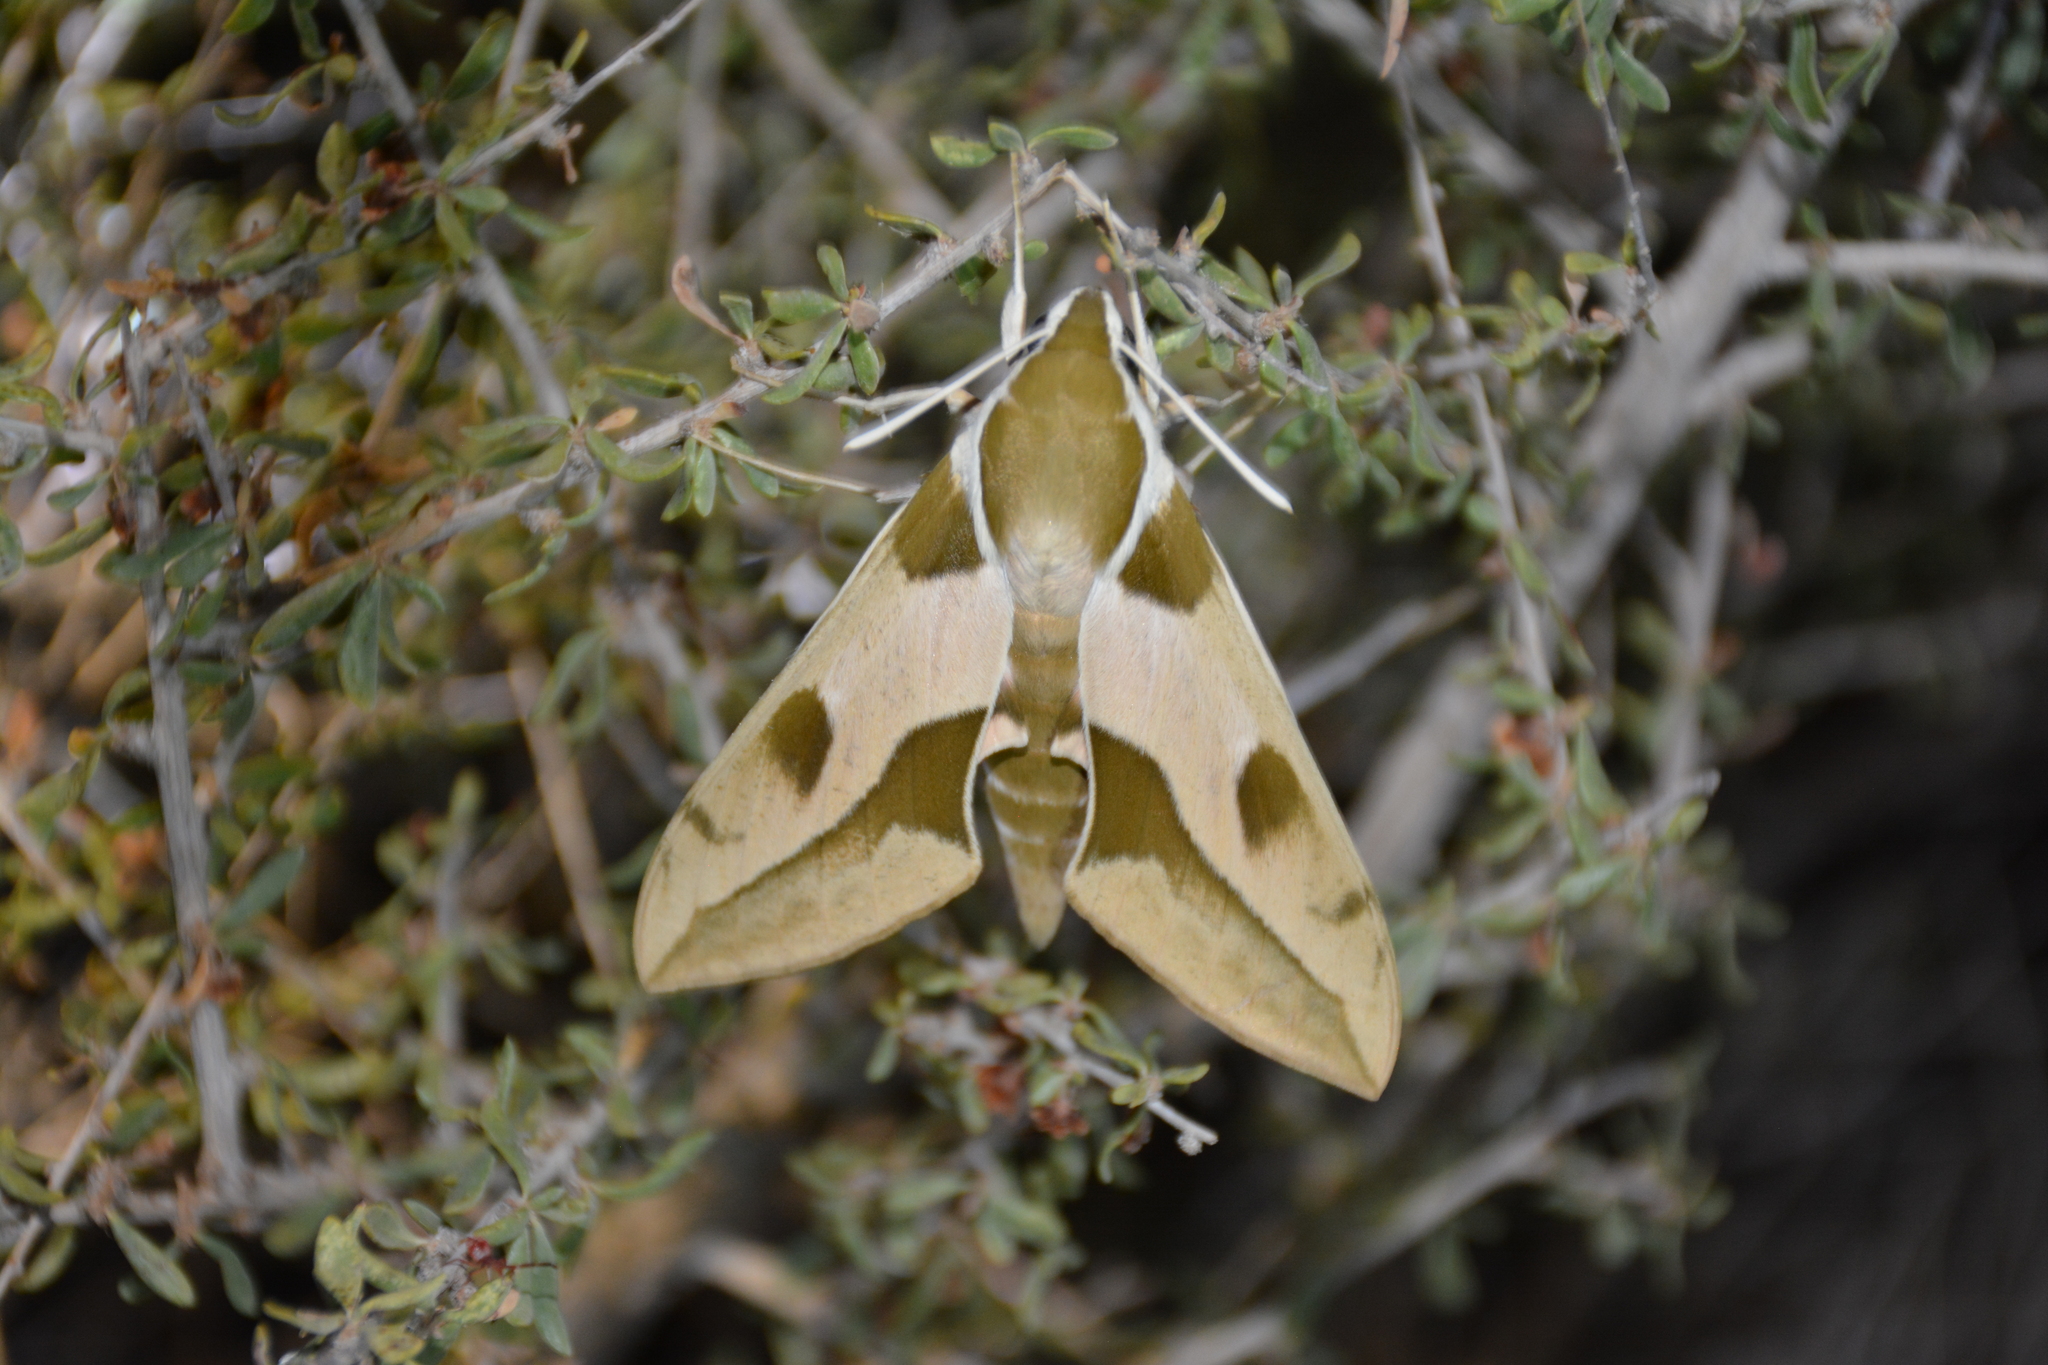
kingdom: Animalia
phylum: Arthropoda
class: Insecta
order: Lepidoptera
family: Sphingidae
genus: Hyles
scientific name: Hyles nicaea
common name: Mediterranean hawk-moth
